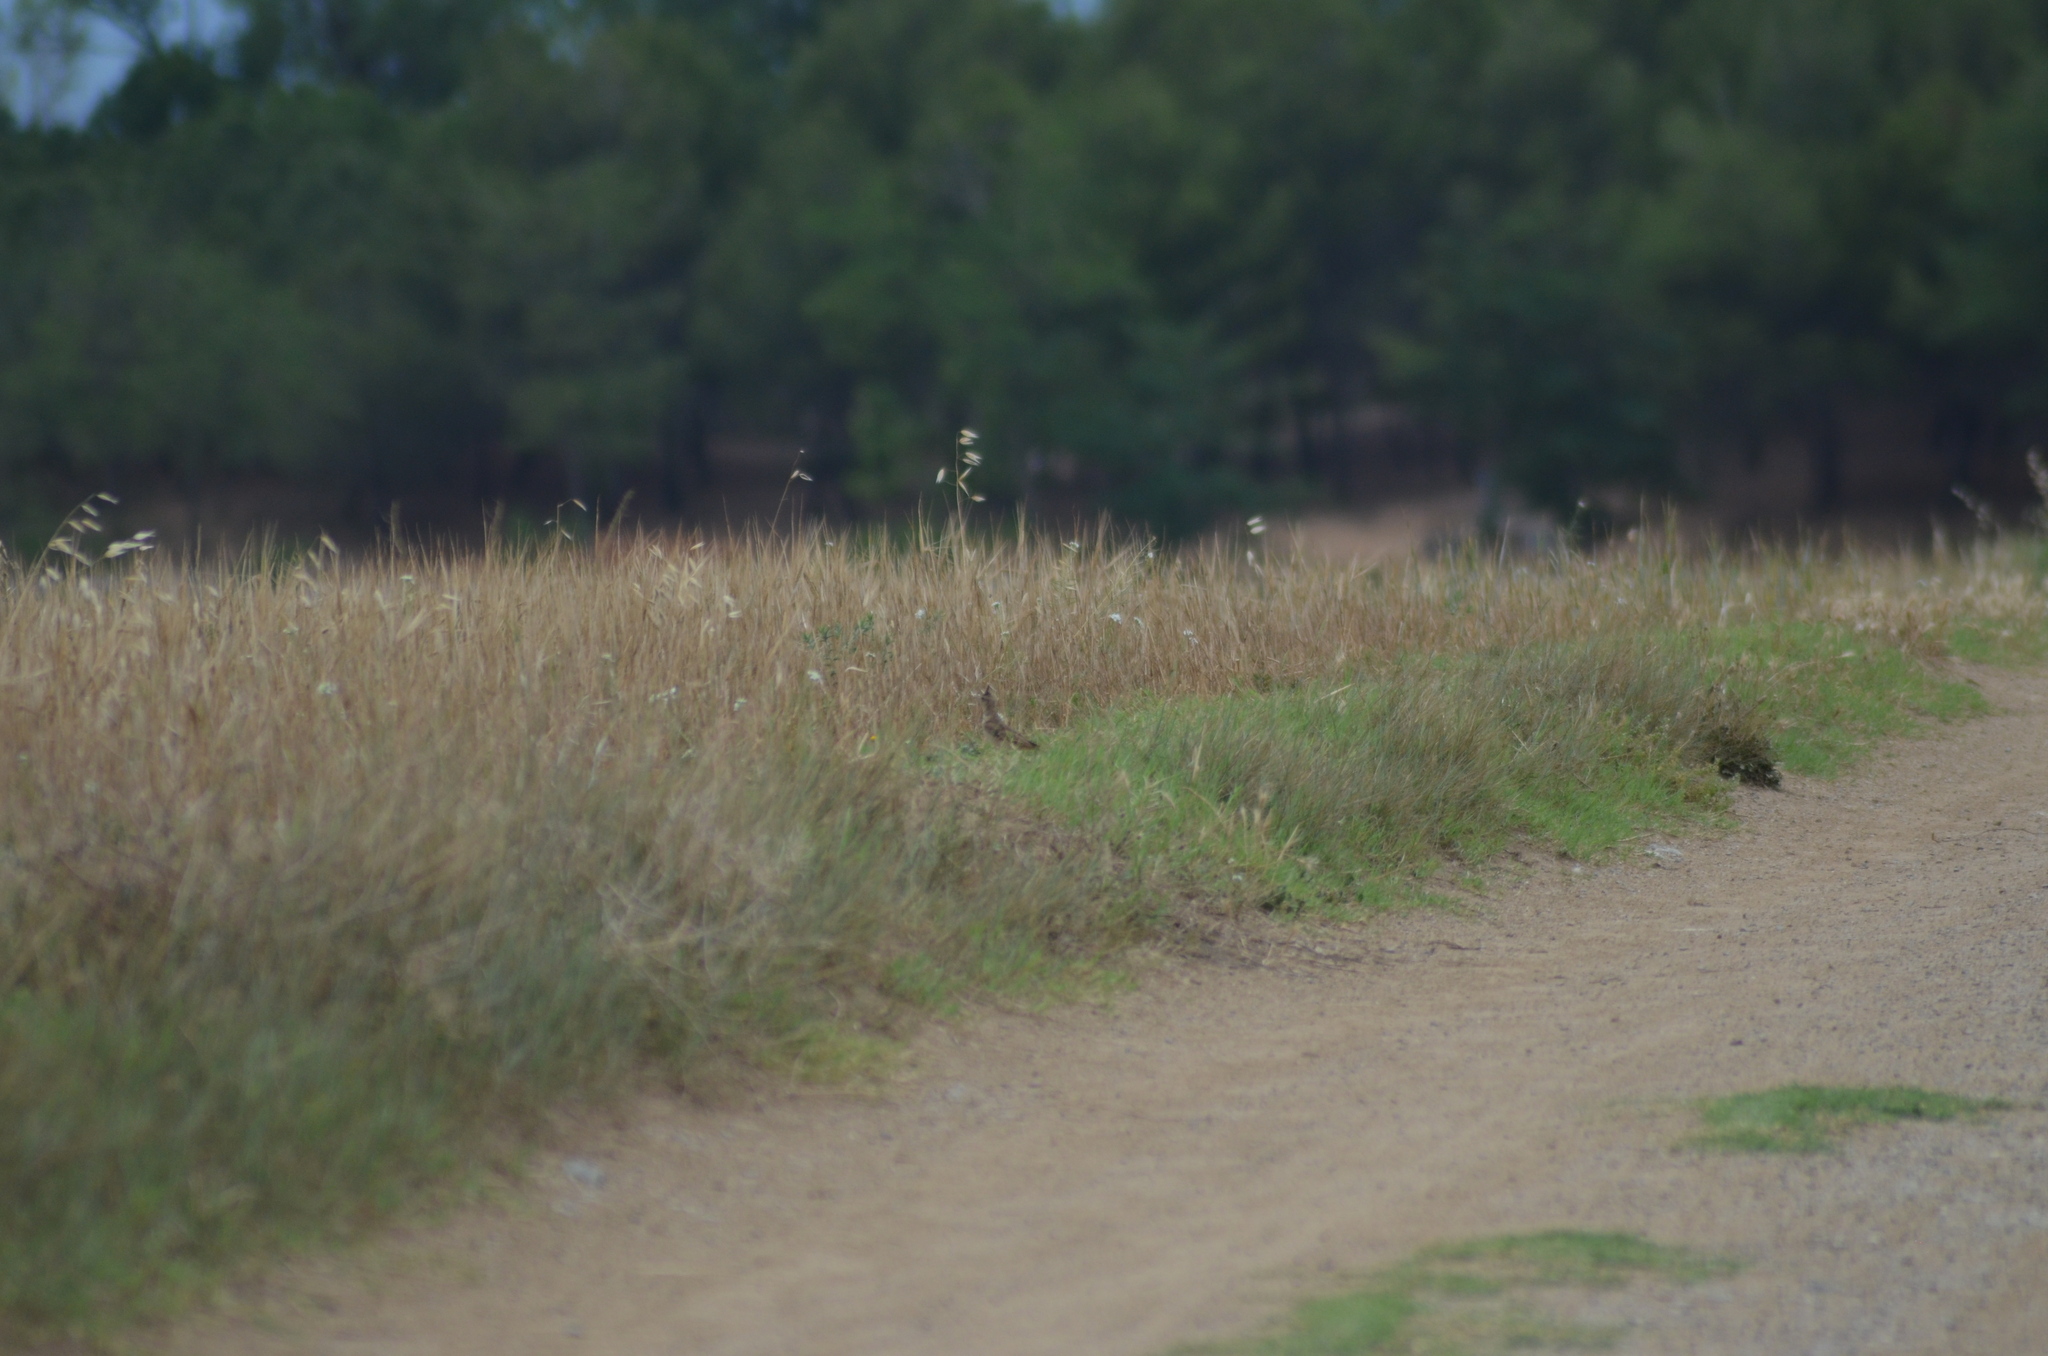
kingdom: Animalia
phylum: Chordata
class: Aves
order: Passeriformes
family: Alaudidae
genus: Galerida
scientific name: Galerida cristata
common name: Crested lark
